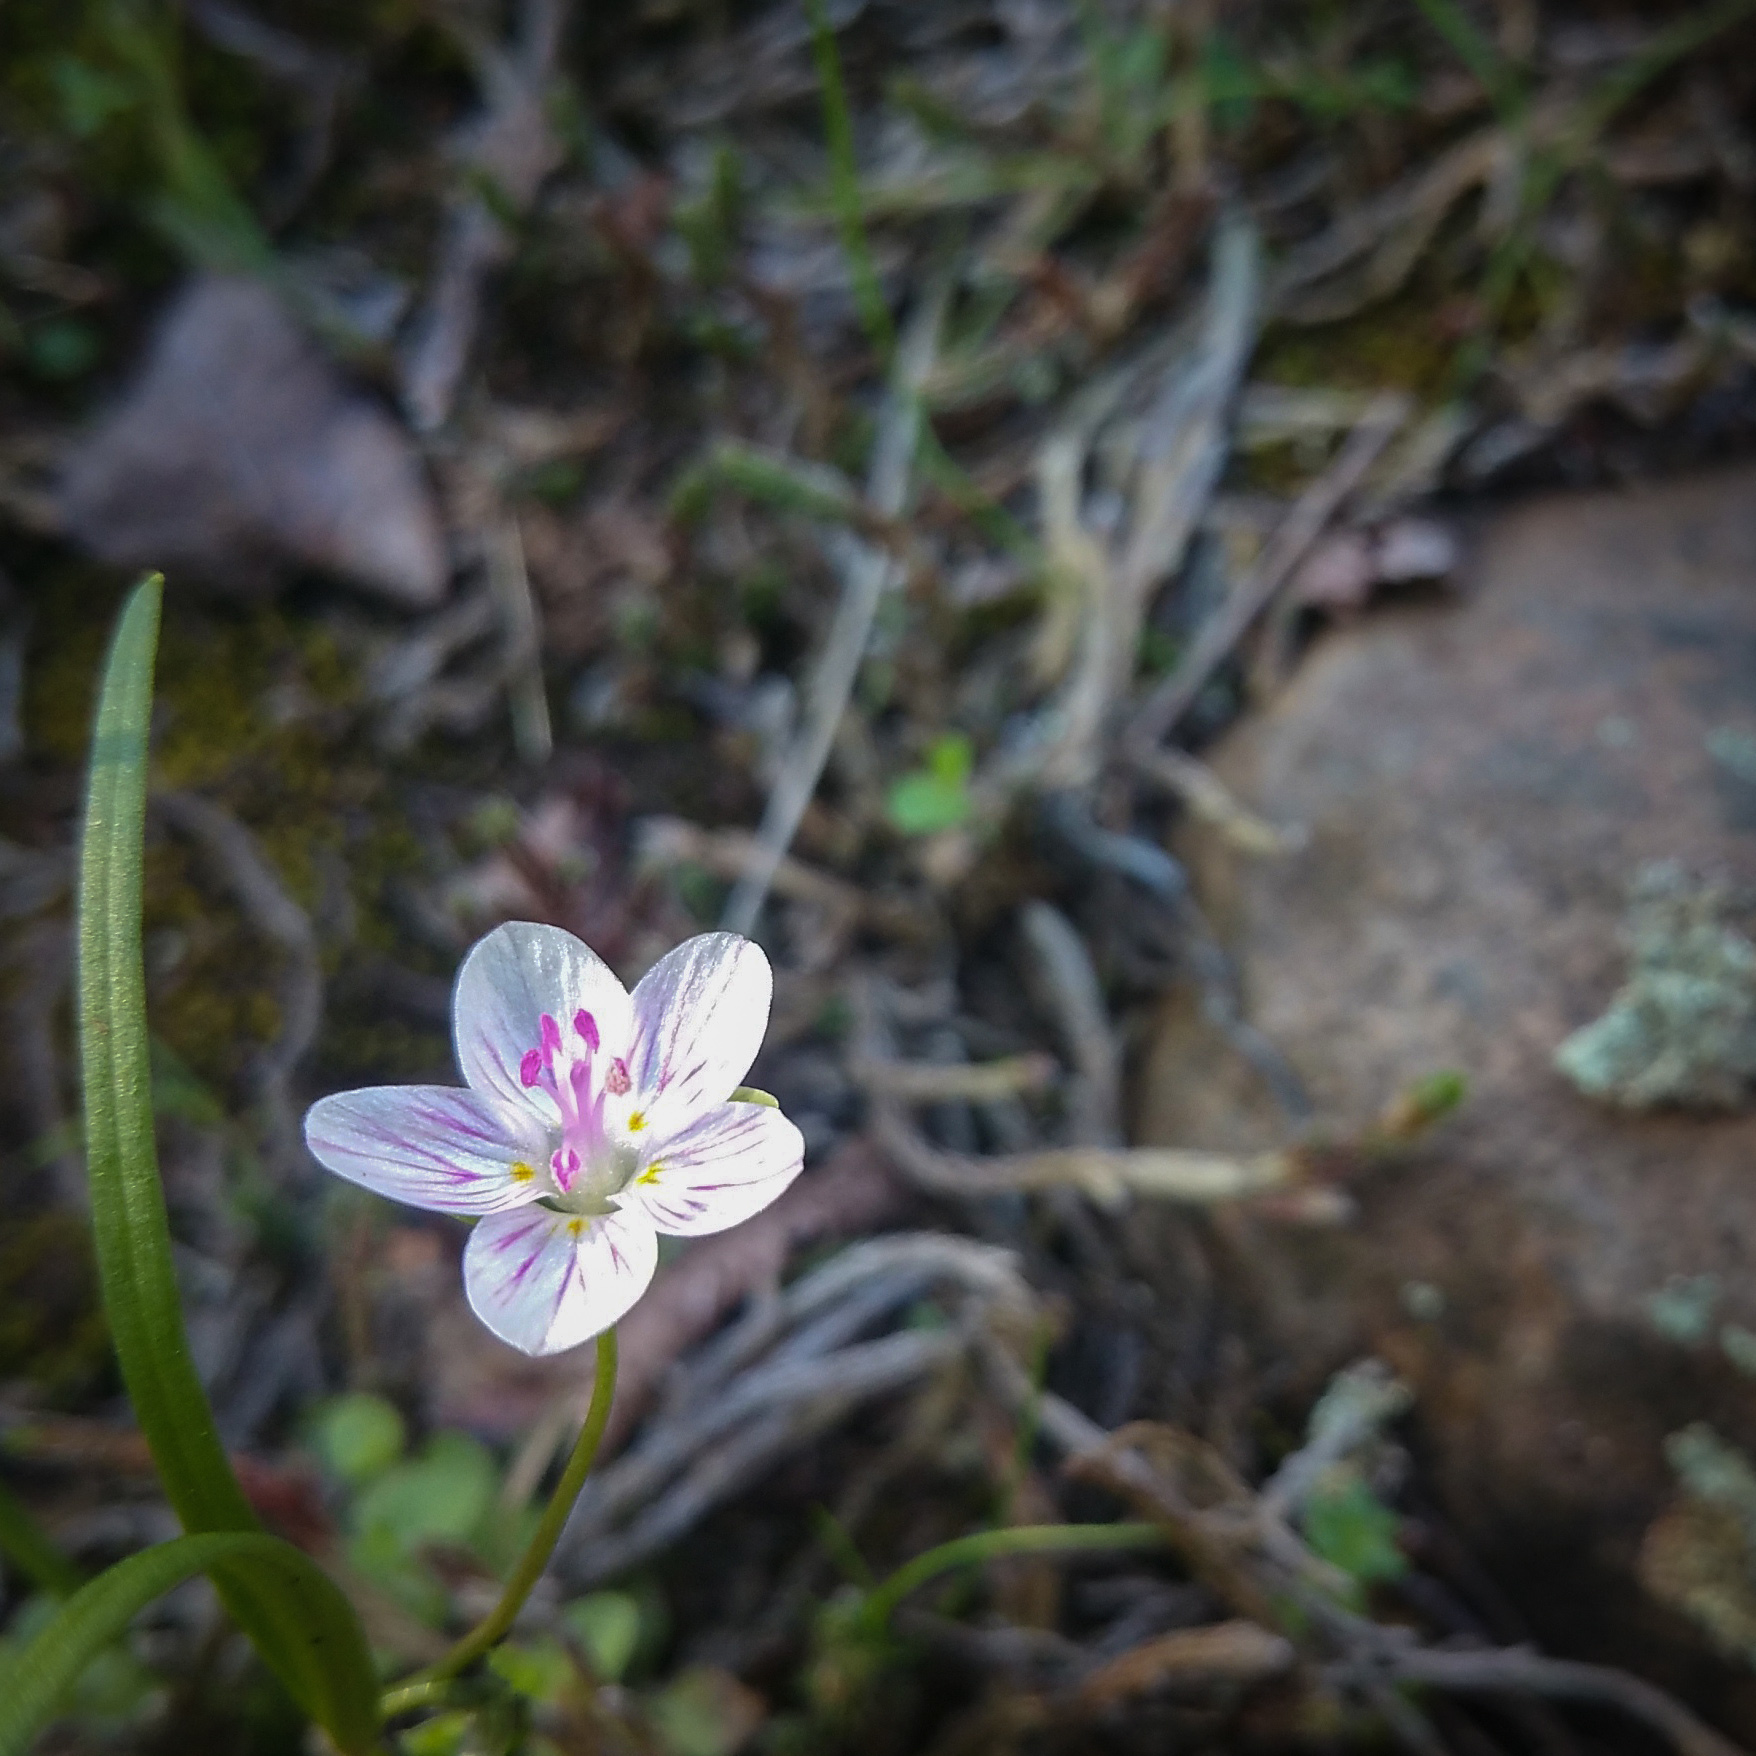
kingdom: Plantae
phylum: Tracheophyta
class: Magnoliopsida
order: Caryophyllales
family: Montiaceae
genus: Claytonia
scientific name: Claytonia virginica
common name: Virginia springbeauty
